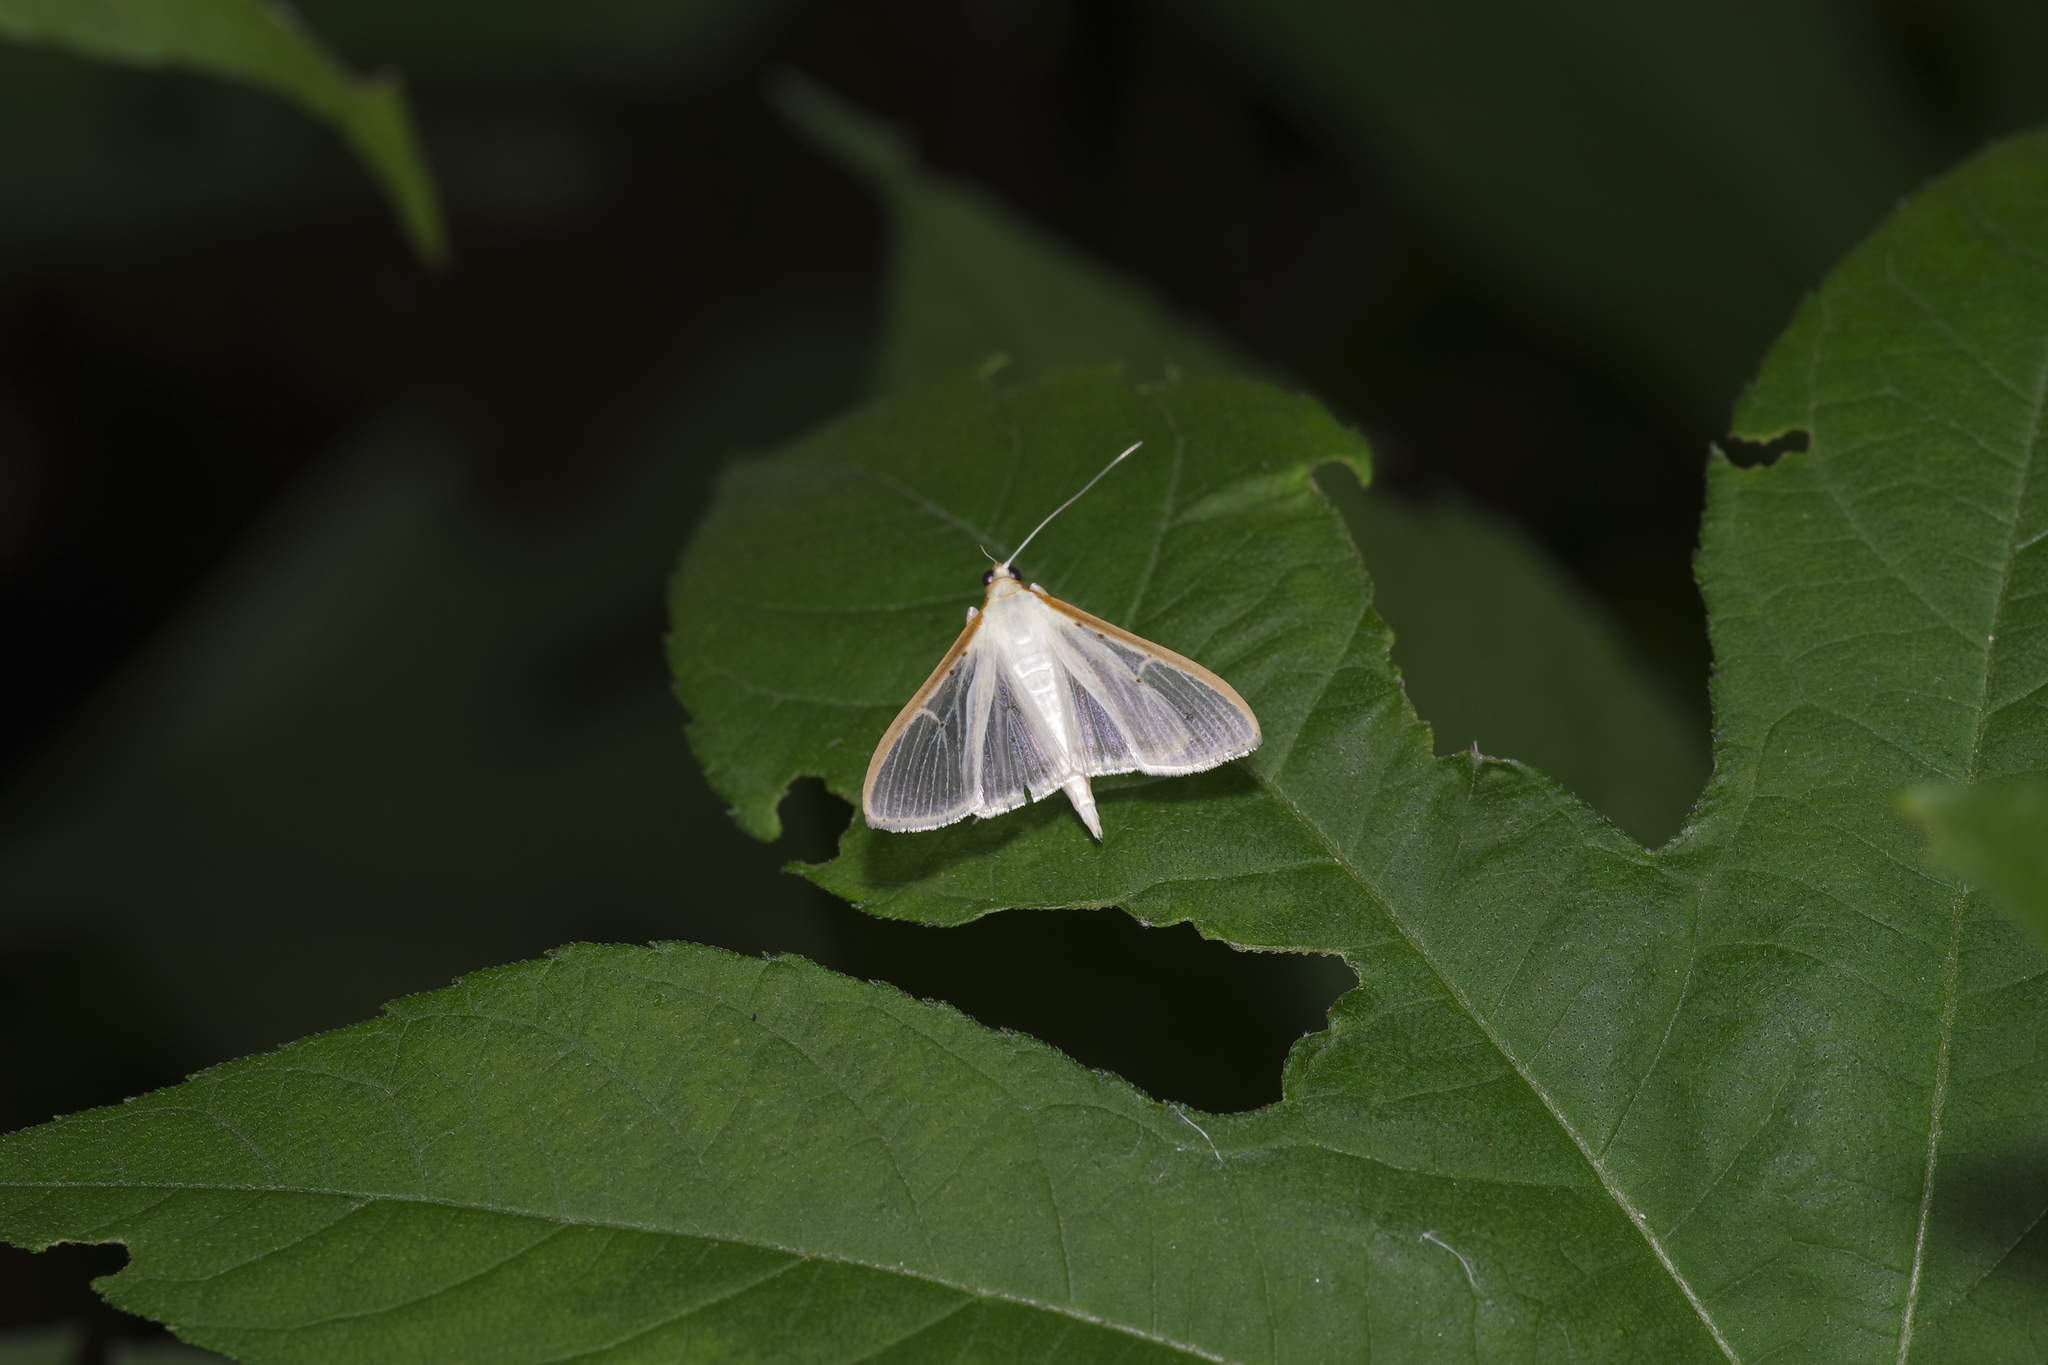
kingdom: Animalia
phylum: Arthropoda
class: Insecta
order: Lepidoptera
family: Crambidae
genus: Palpita
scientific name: Palpita quadristigmalis
